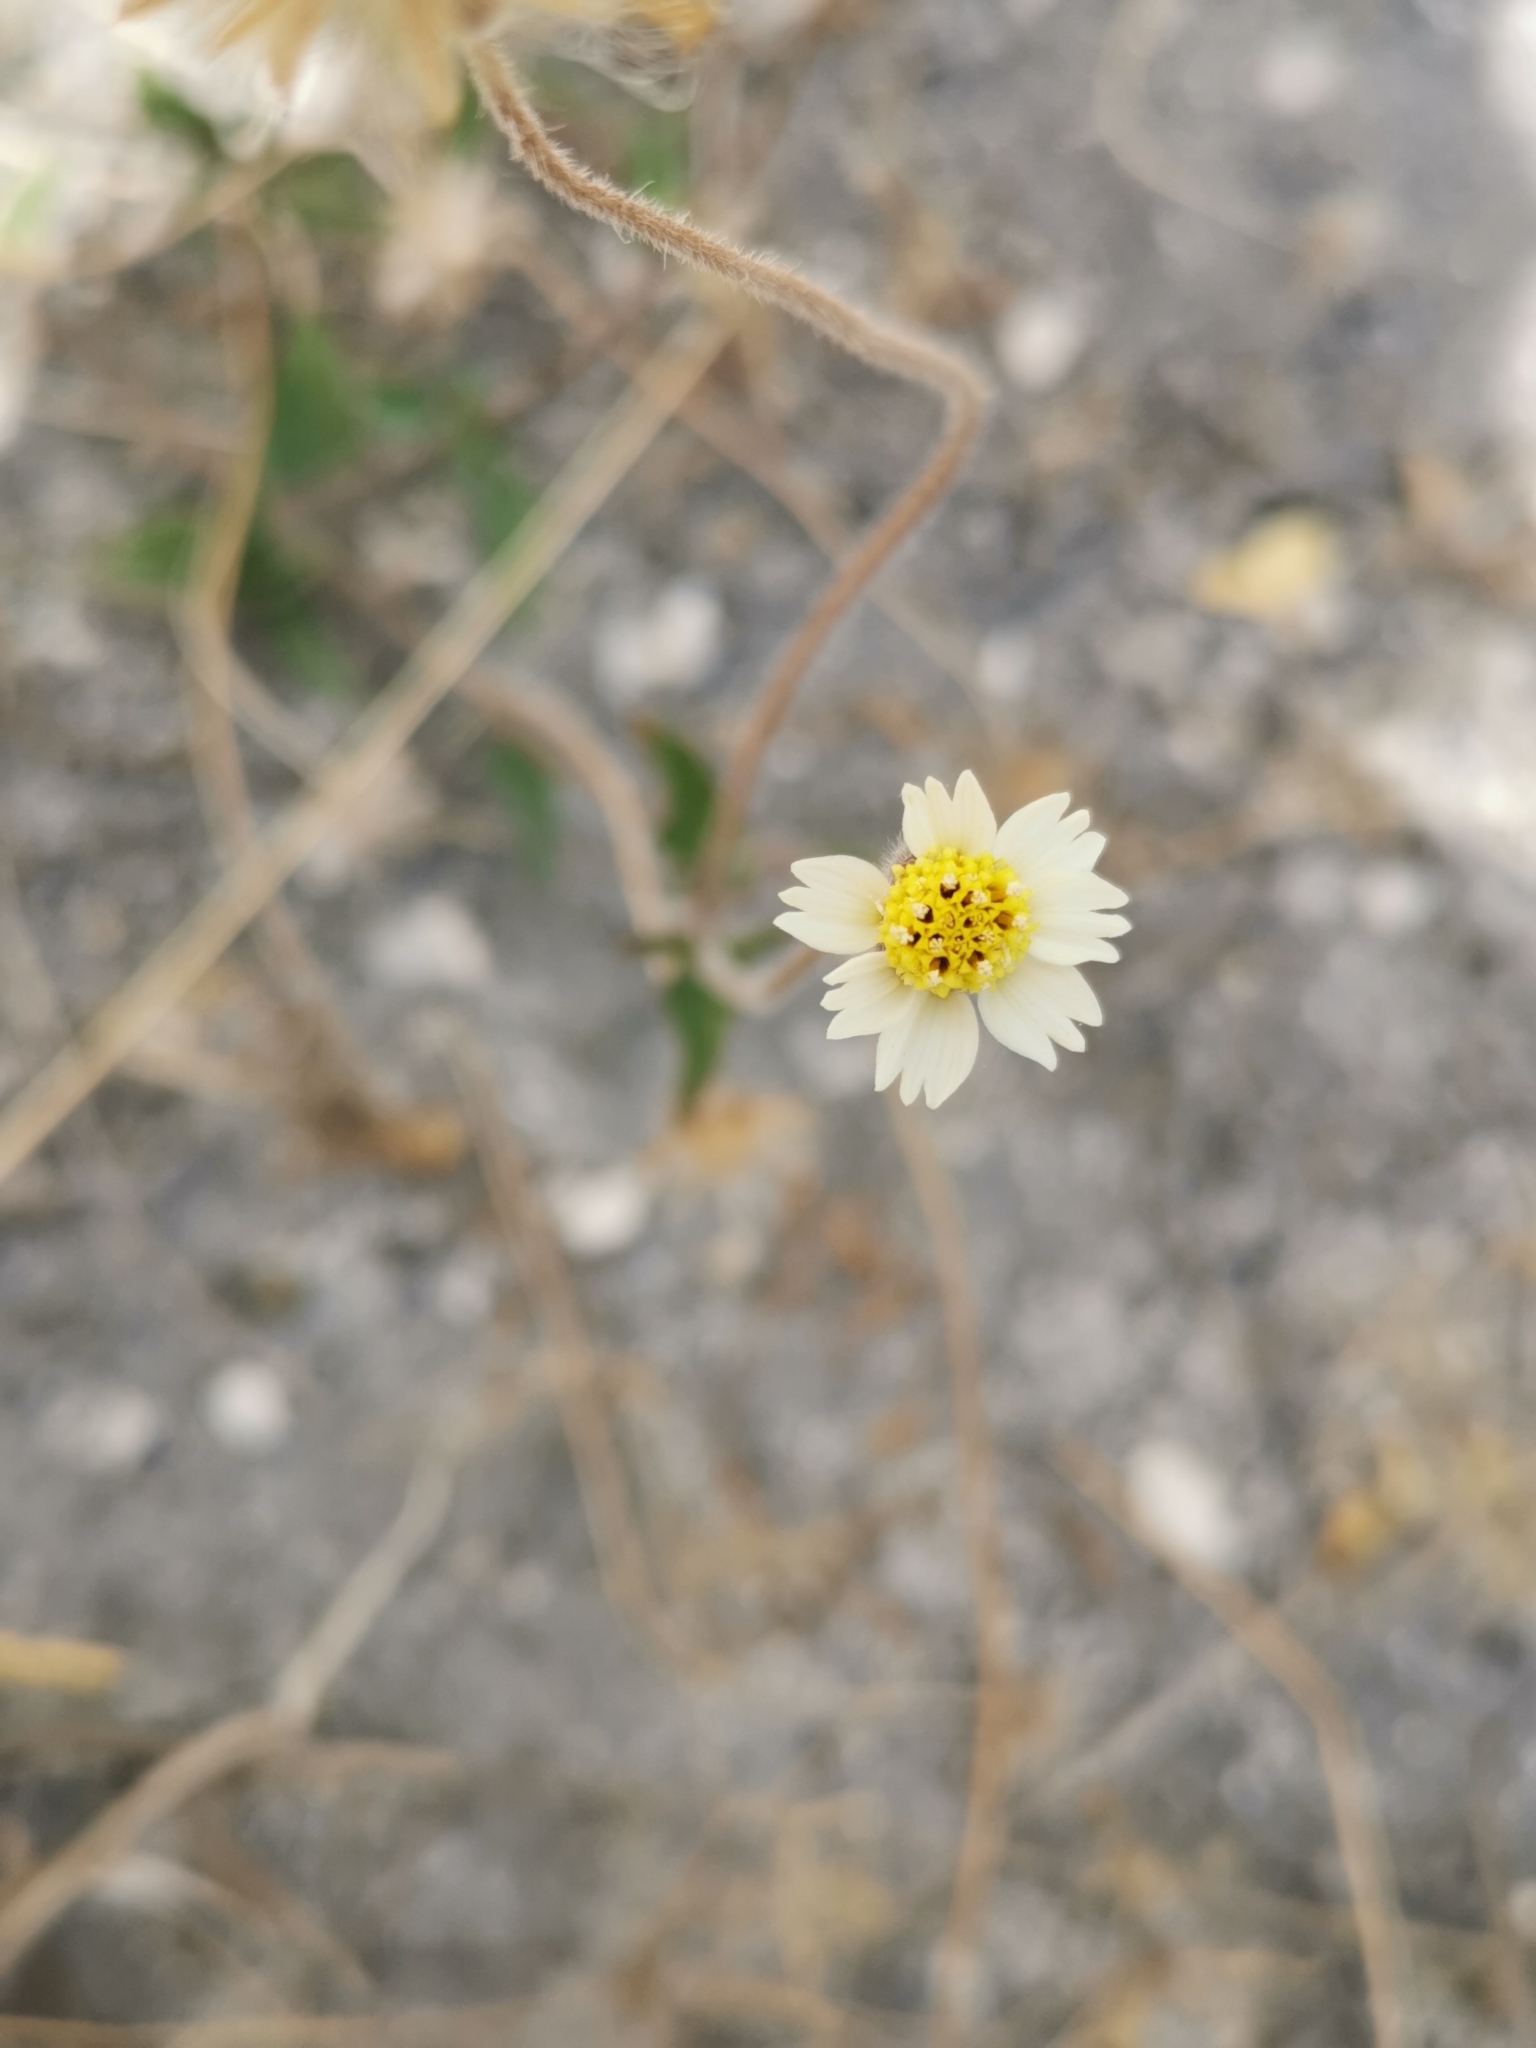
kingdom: Plantae
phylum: Tracheophyta
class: Magnoliopsida
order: Asterales
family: Asteraceae
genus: Tridax
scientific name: Tridax procumbens
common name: Coatbuttons
